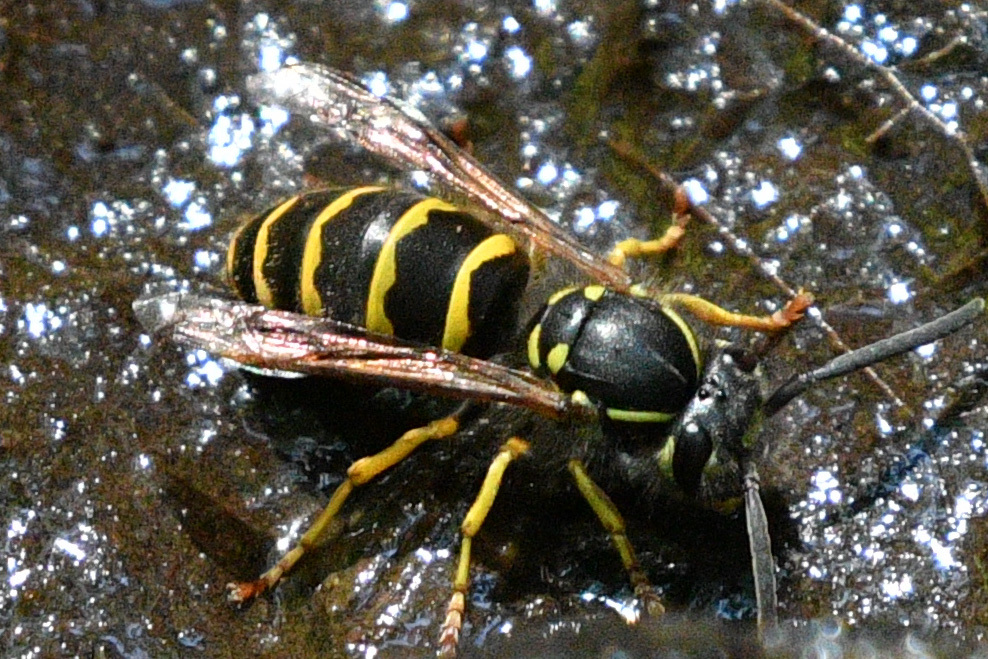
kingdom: Animalia
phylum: Arthropoda
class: Insecta
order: Hymenoptera
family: Vespidae
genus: Vespula
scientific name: Vespula alascensis
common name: Alaska yellowjacket
